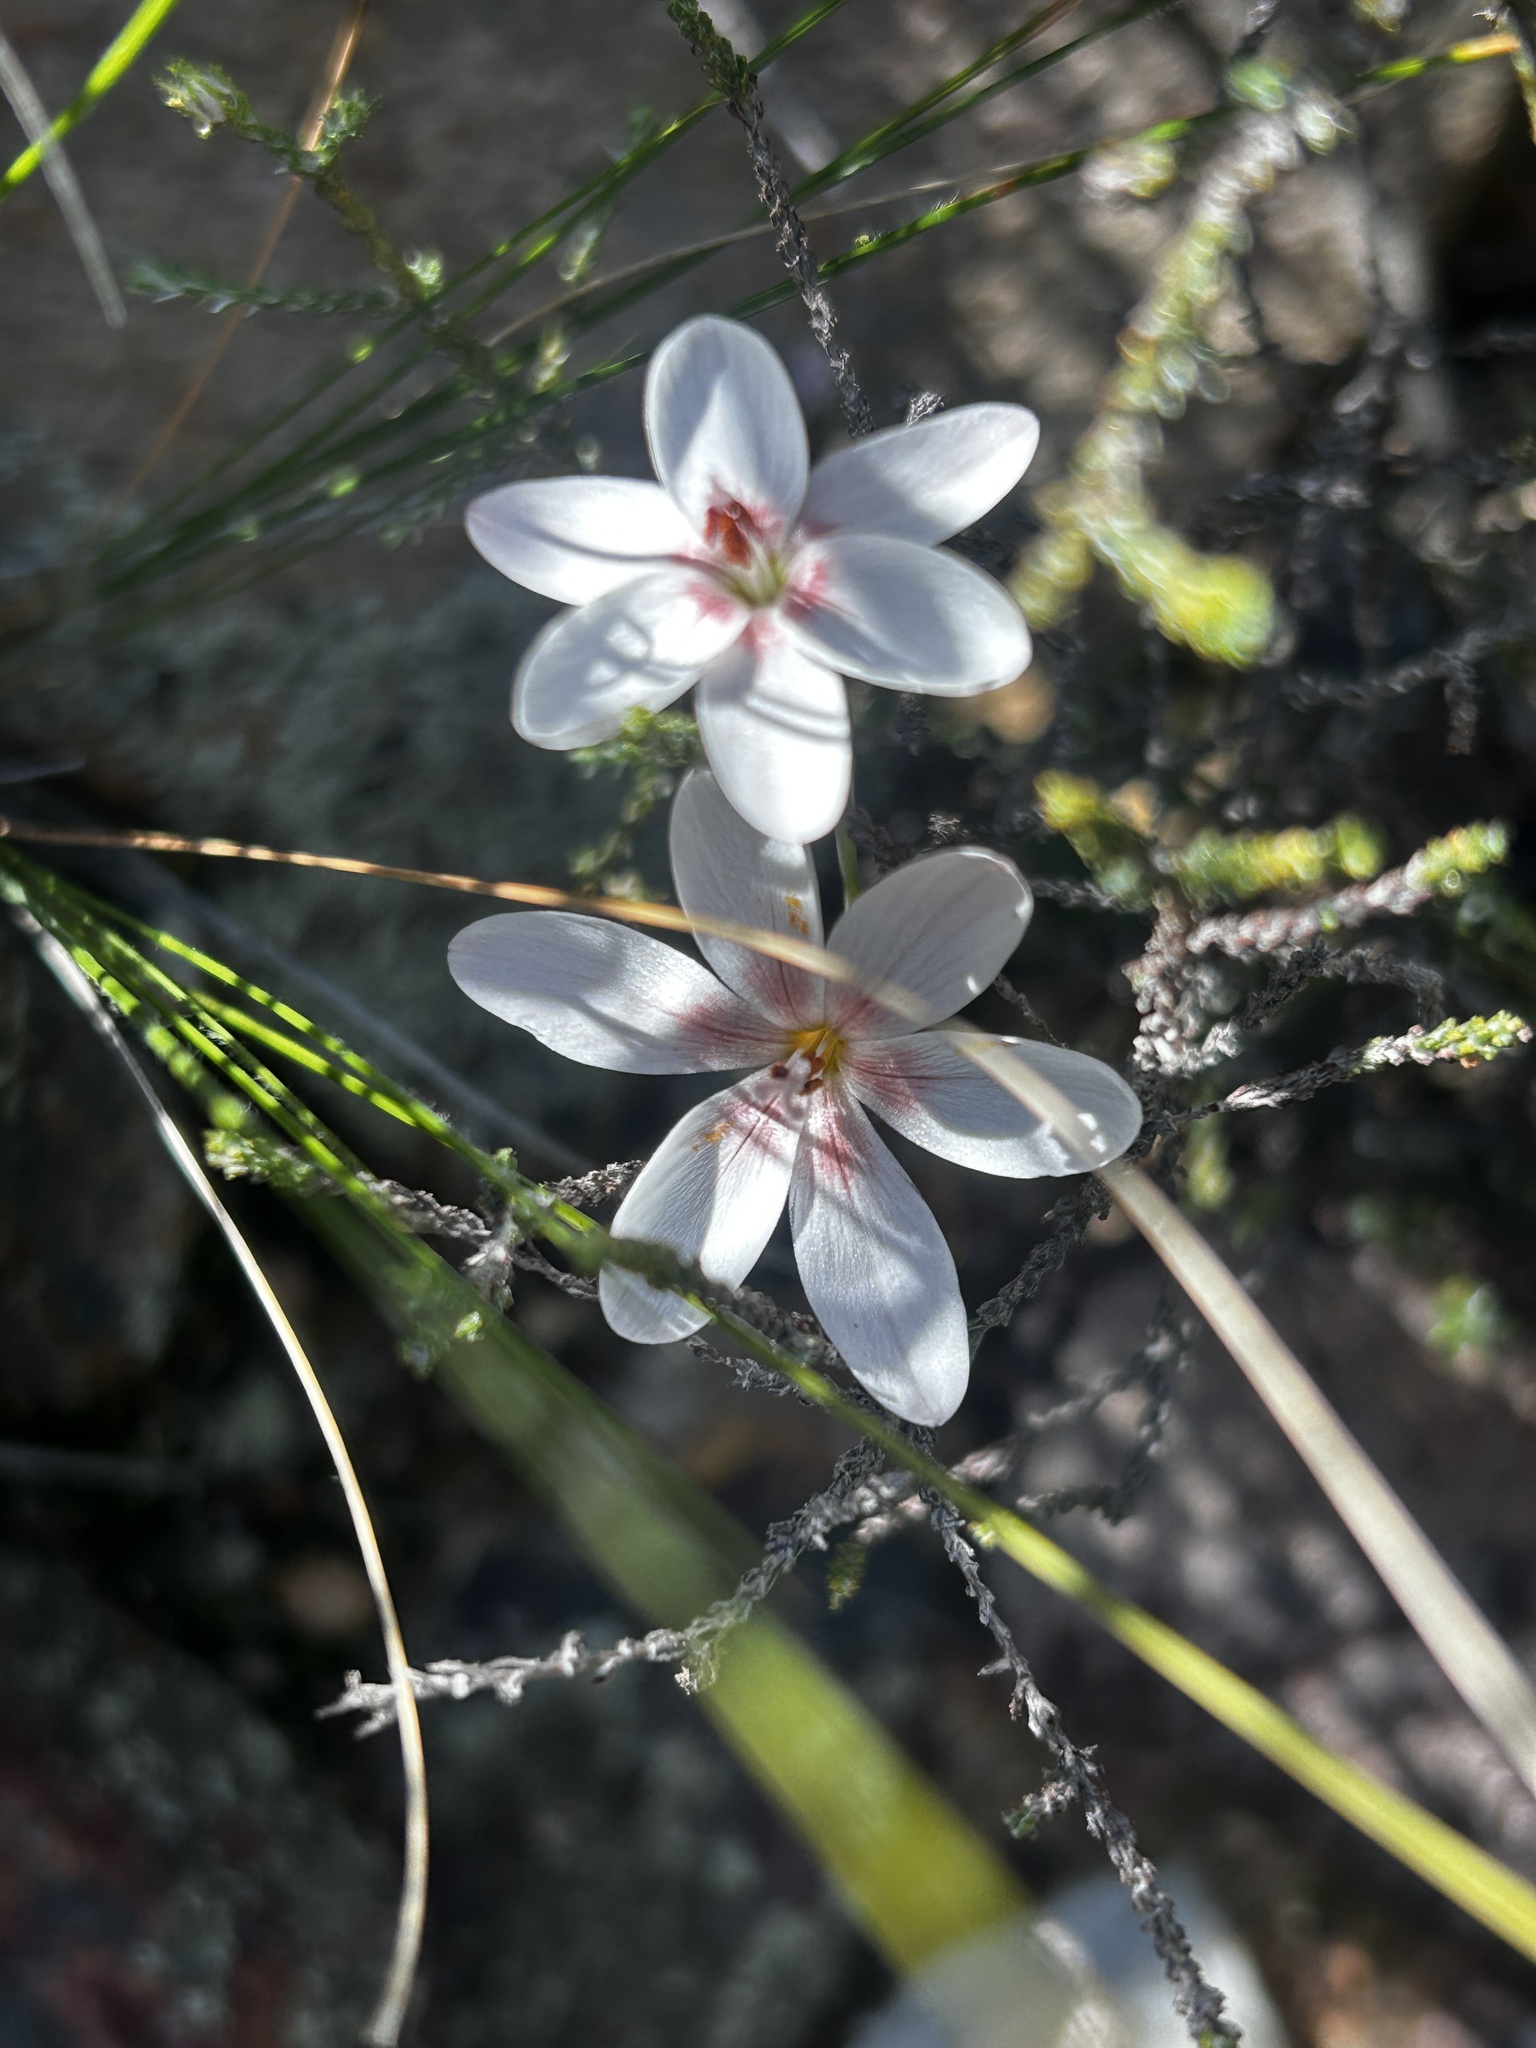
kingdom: Plantae
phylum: Tracheophyta
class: Liliopsida
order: Asparagales
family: Iridaceae
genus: Geissorhiza
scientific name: Geissorhiza ovata
